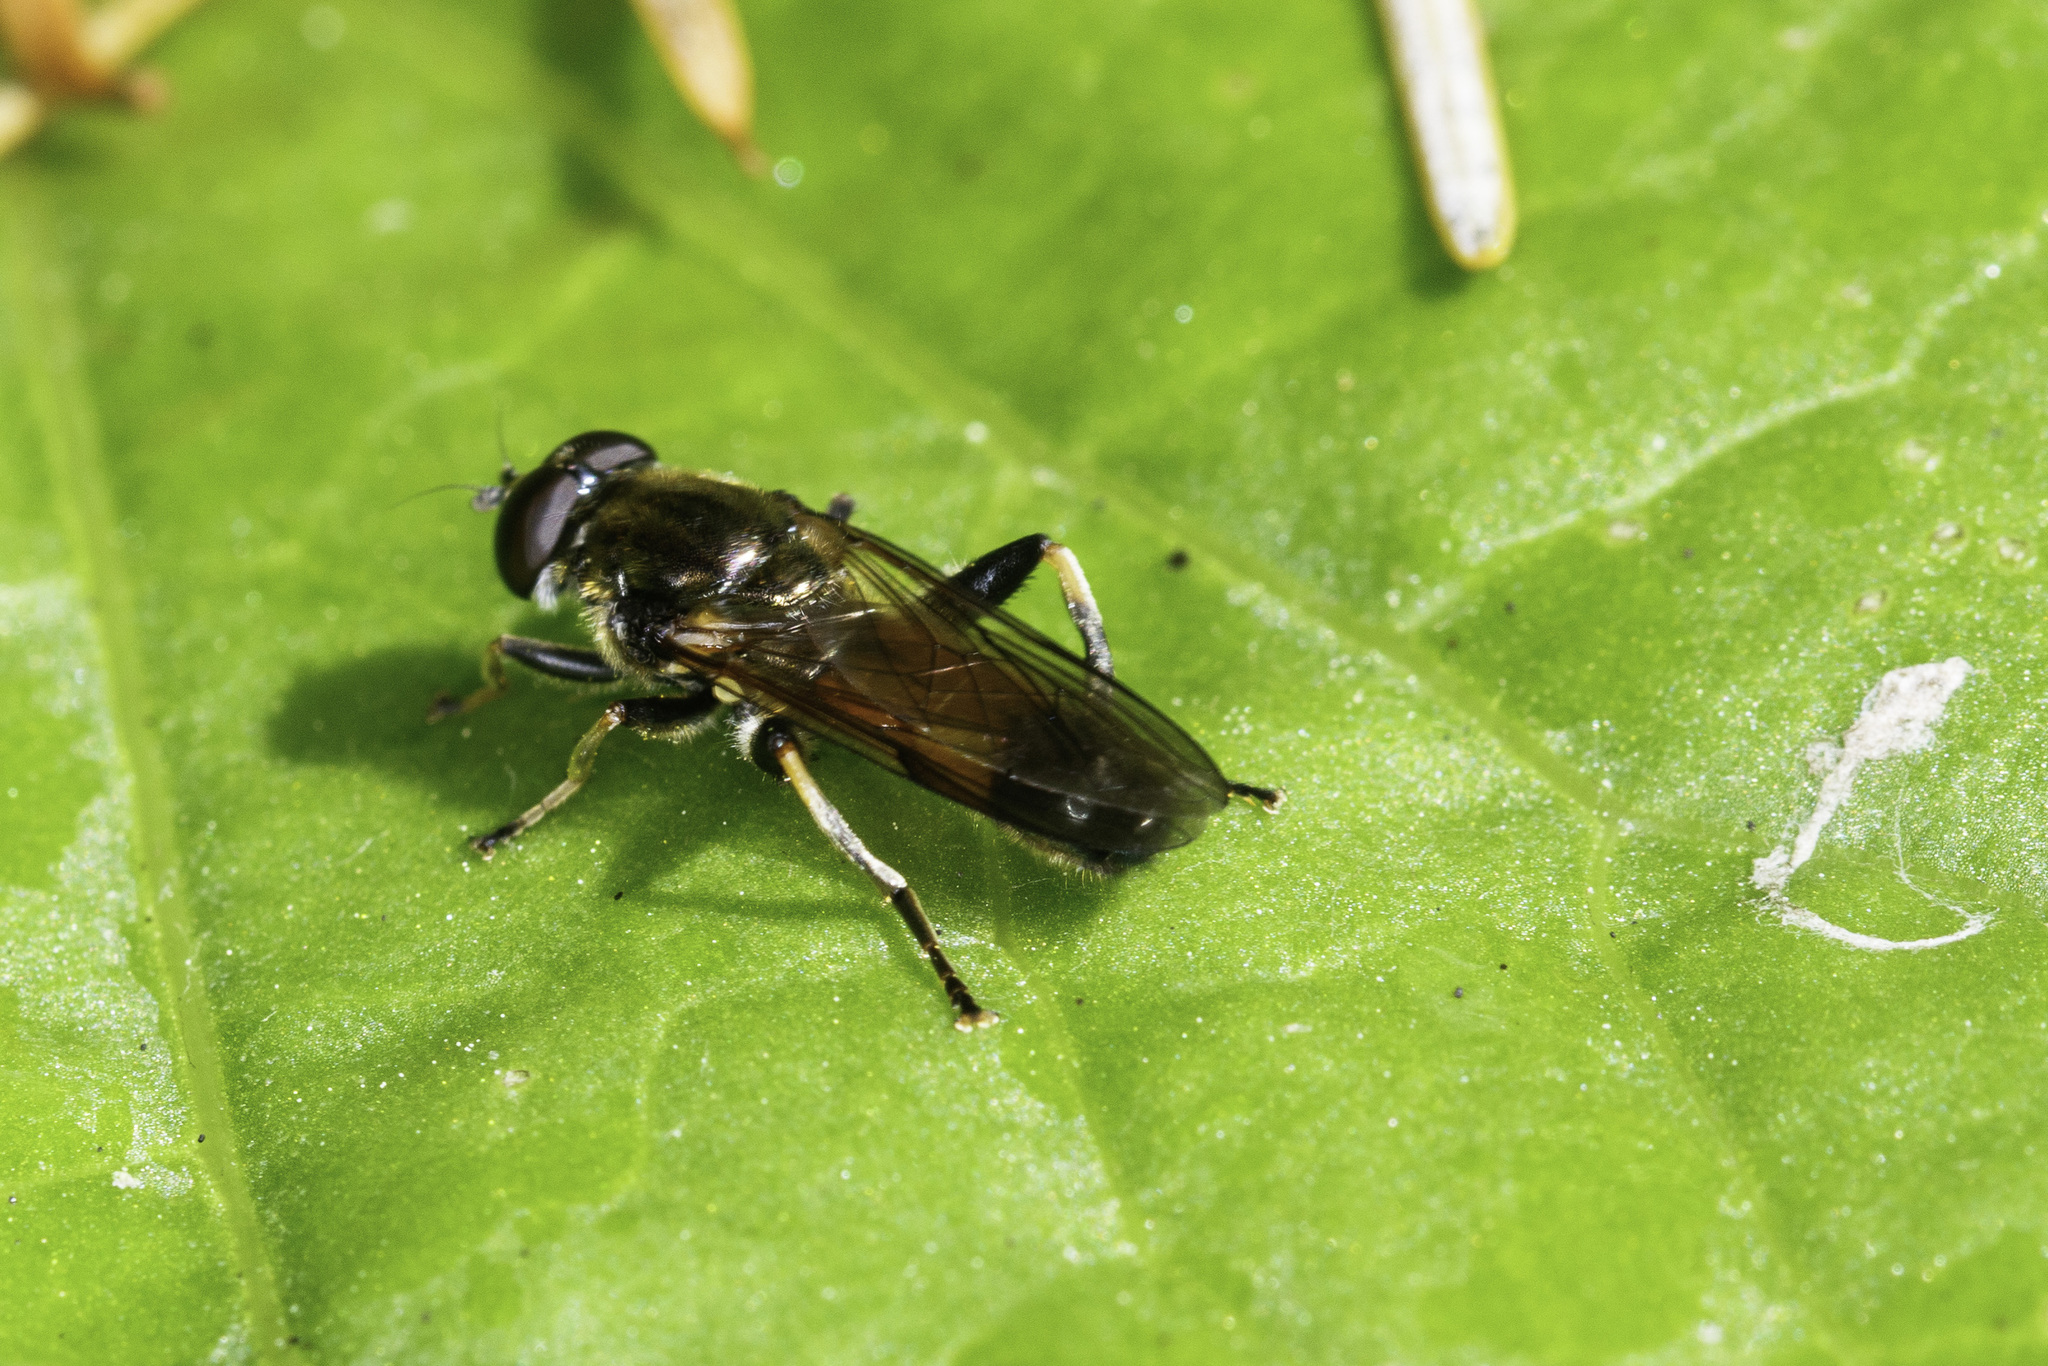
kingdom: Animalia
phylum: Arthropoda
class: Insecta
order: Diptera
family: Syrphidae
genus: Xylota
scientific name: Xylota segnis
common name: Brown-toed forest fly
